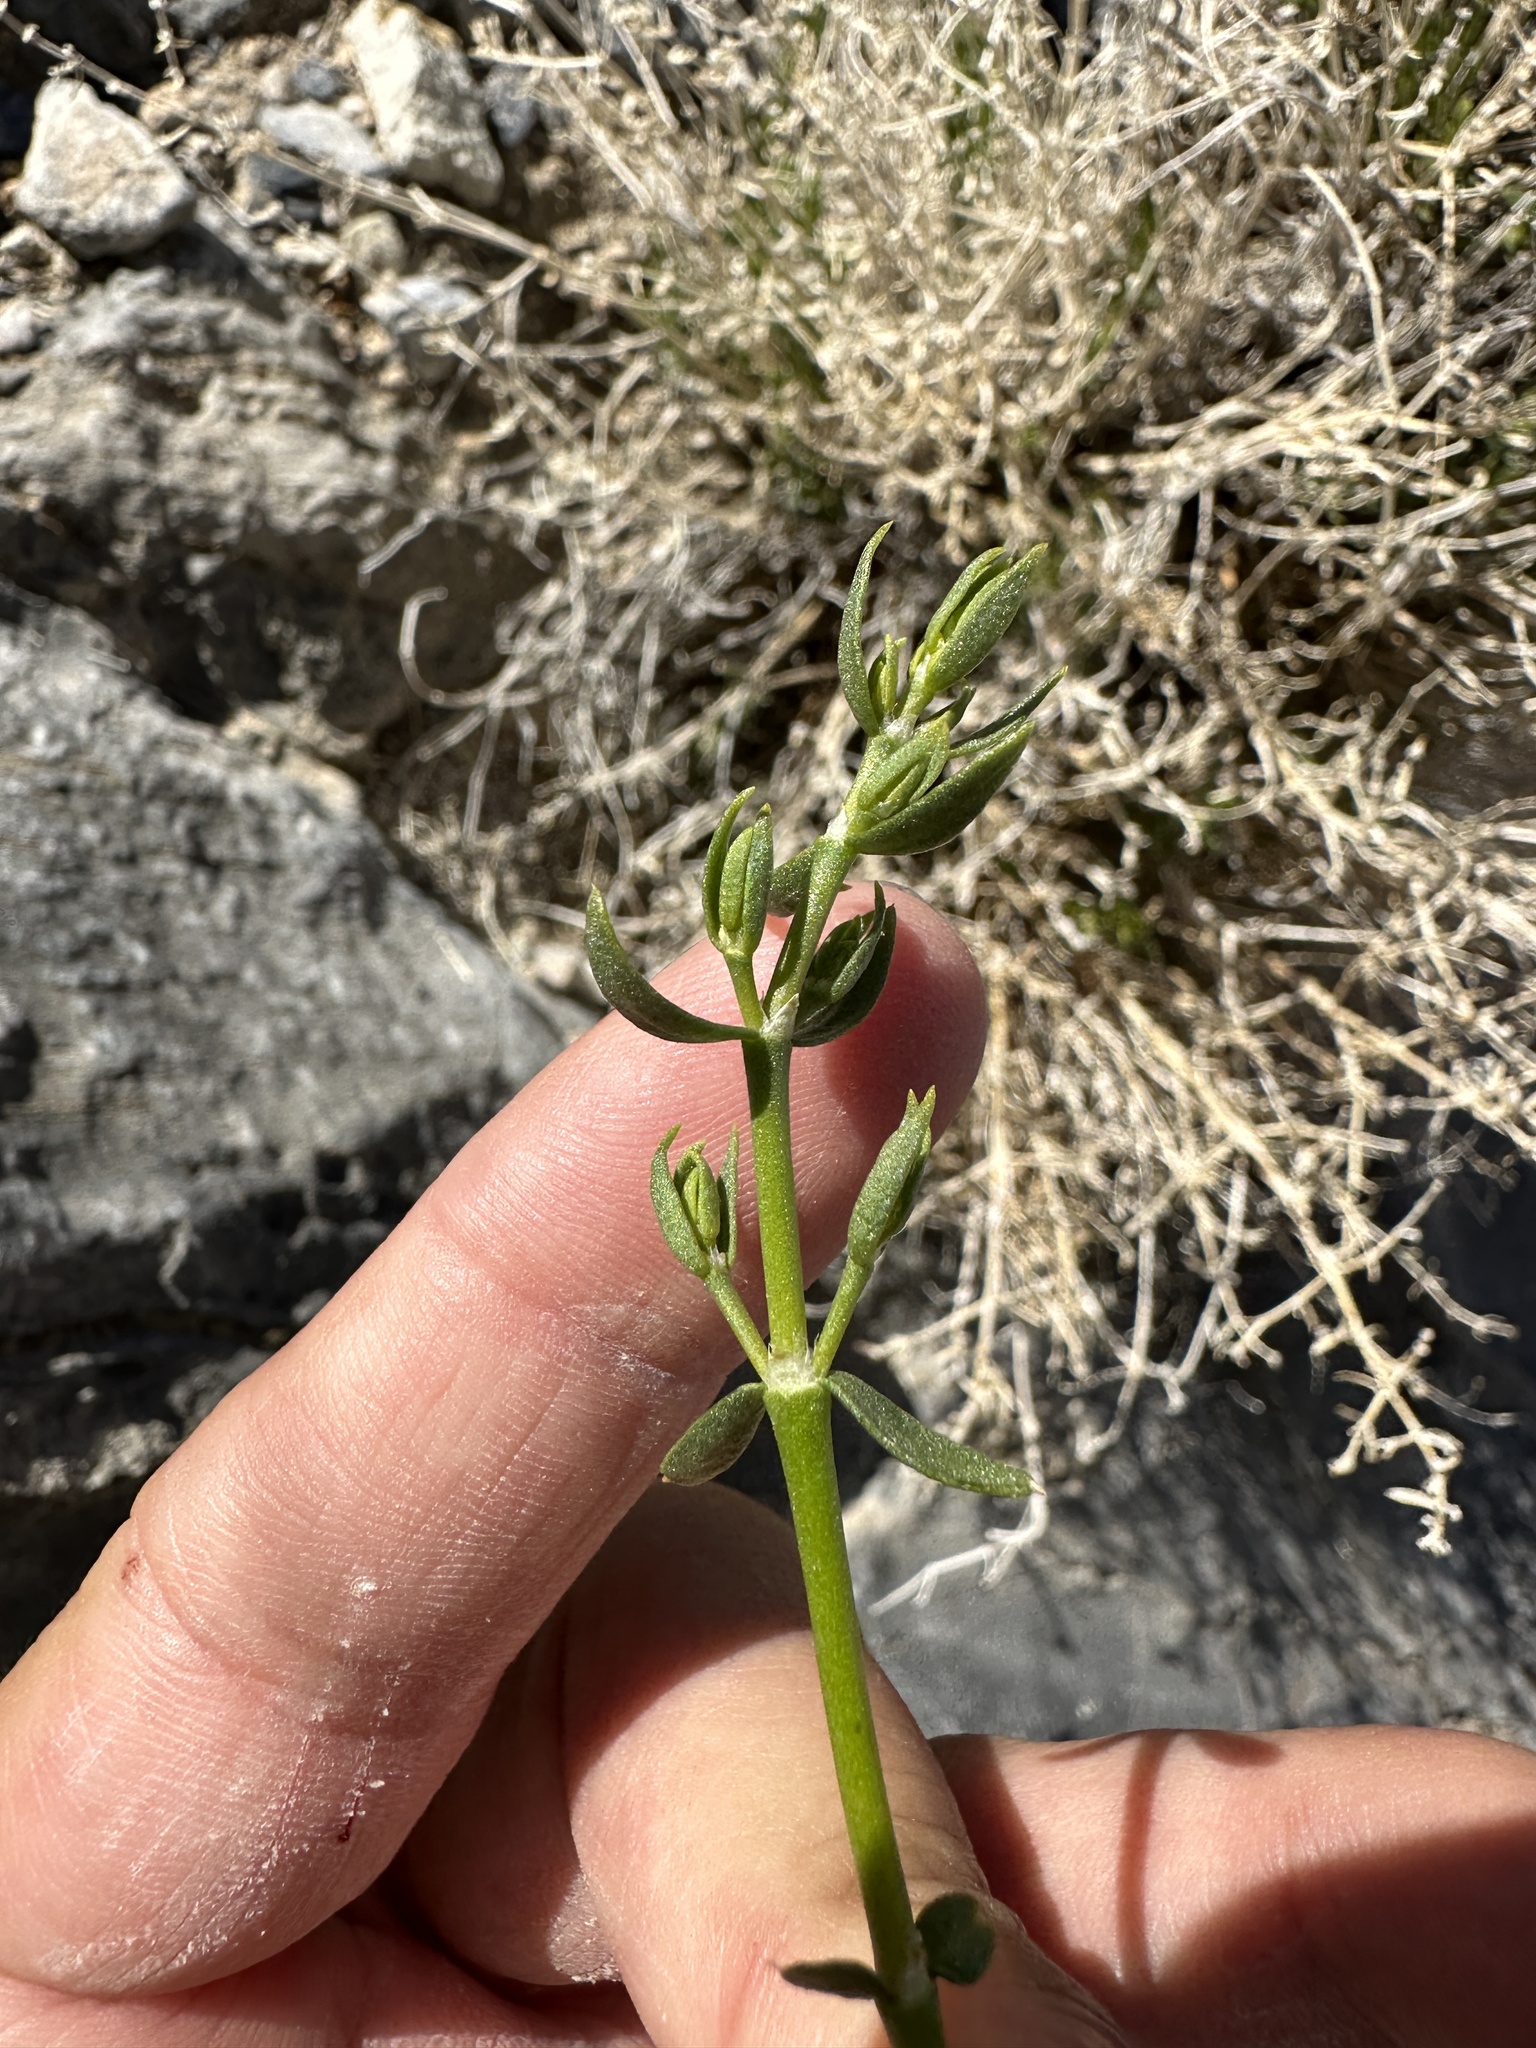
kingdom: Plantae
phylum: Tracheophyta
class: Magnoliopsida
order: Caryophyllales
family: Caryophyllaceae
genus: Scopulophila
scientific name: Scopulophila rixfordii
